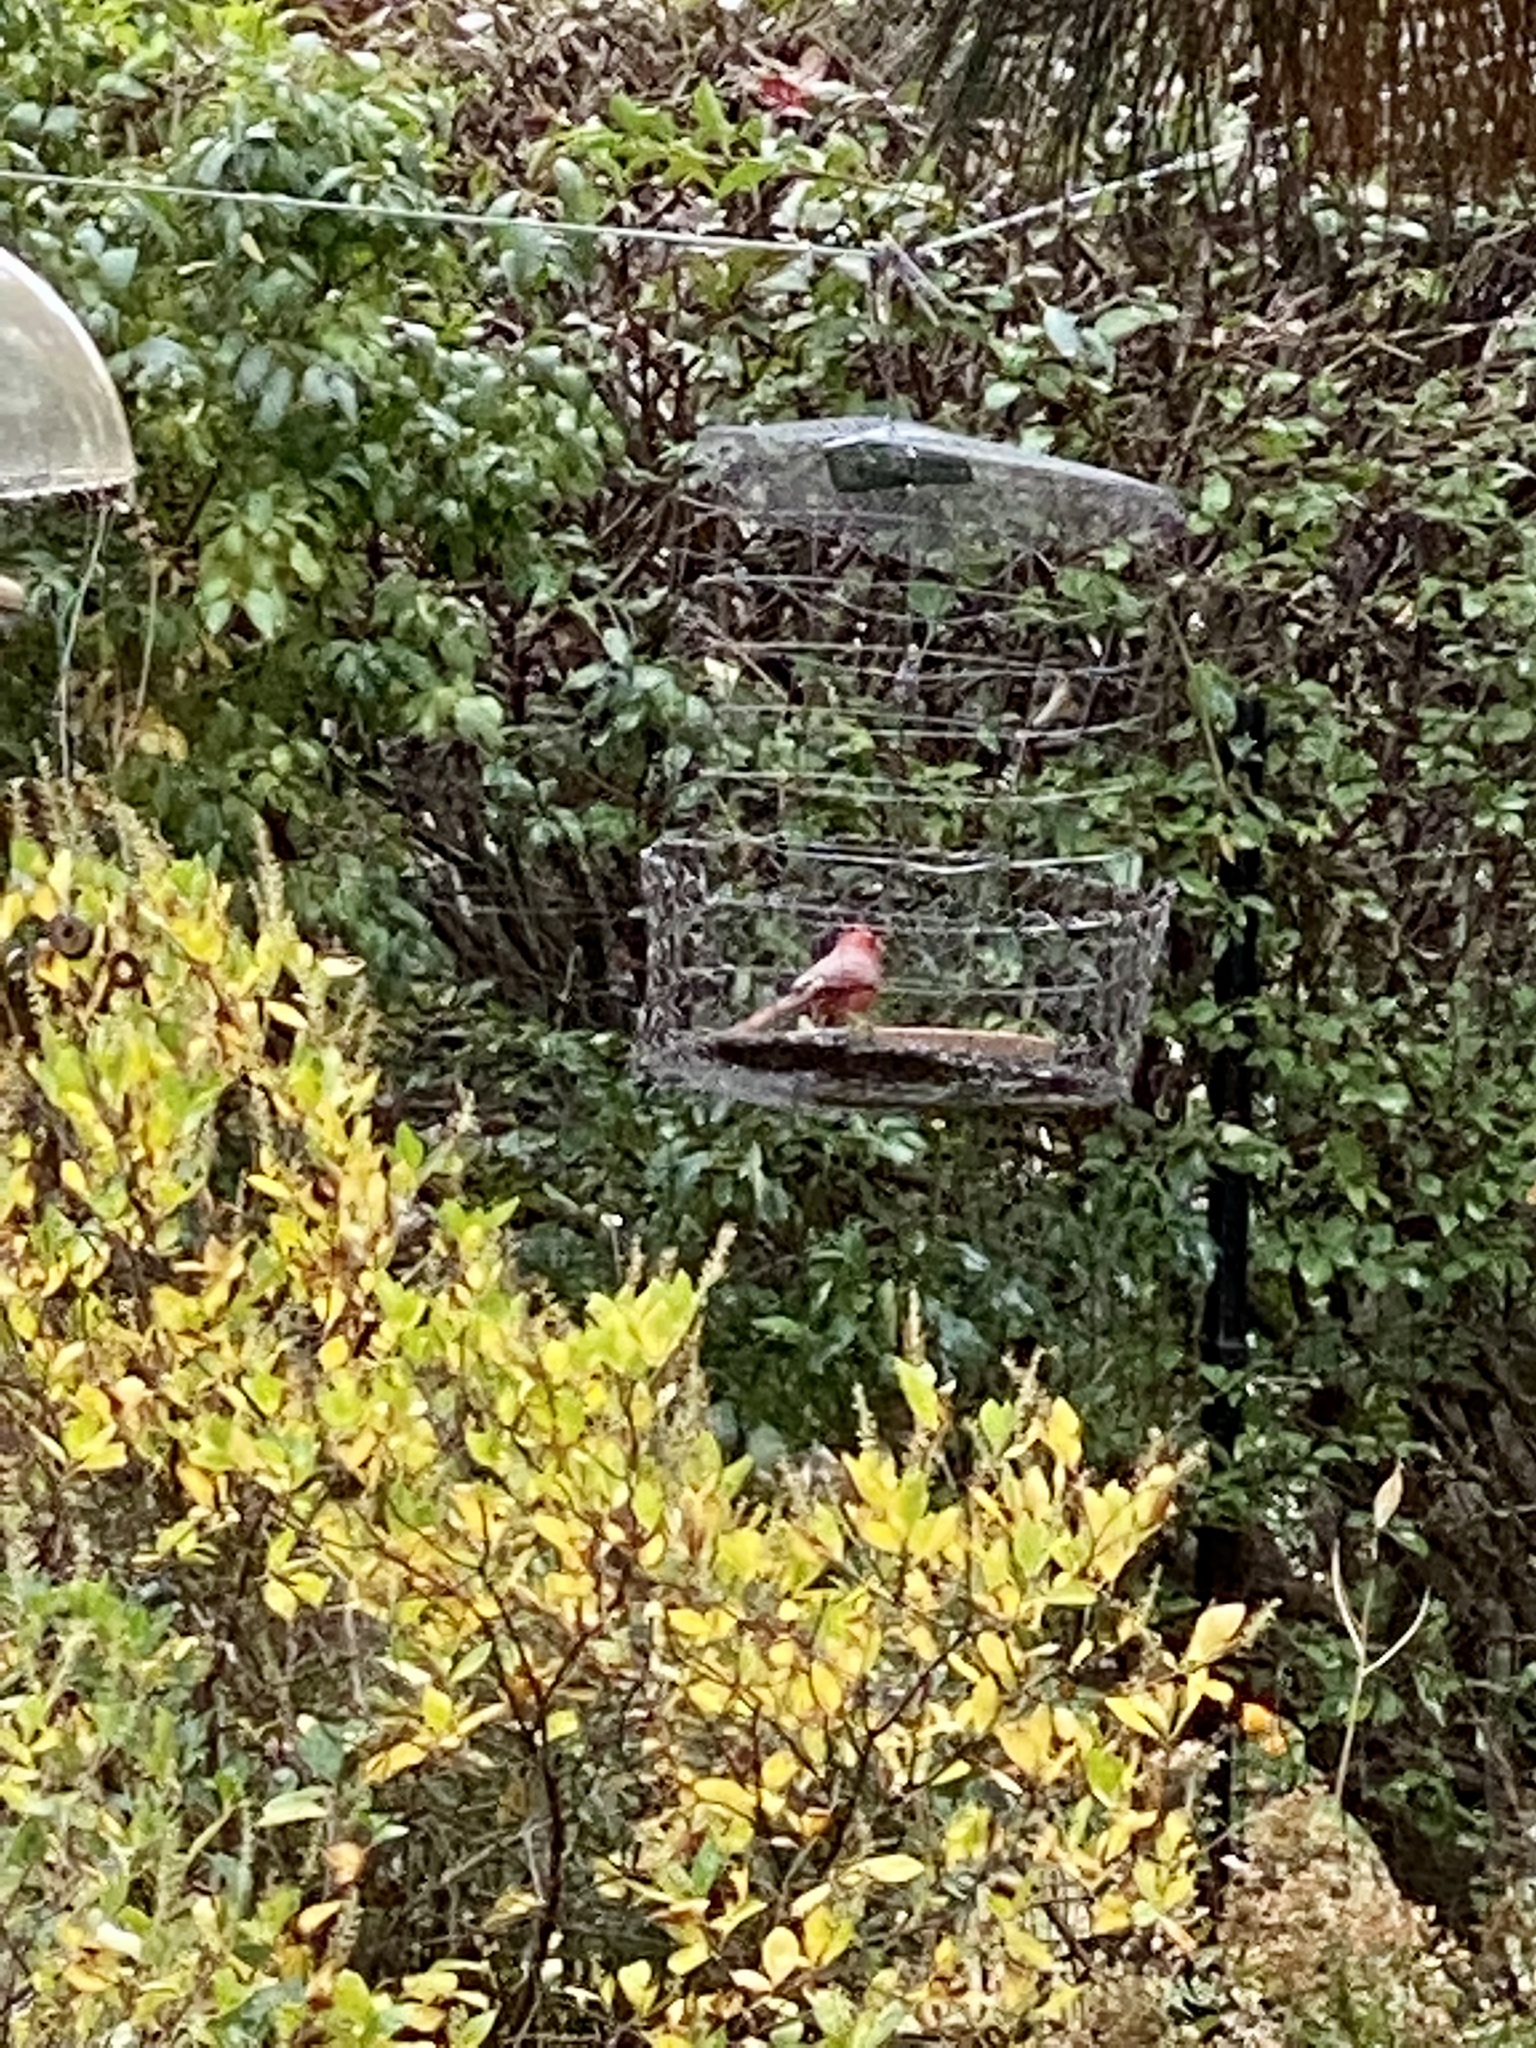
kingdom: Animalia
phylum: Chordata
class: Aves
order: Passeriformes
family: Cardinalidae
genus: Cardinalis
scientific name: Cardinalis cardinalis
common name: Northern cardinal
